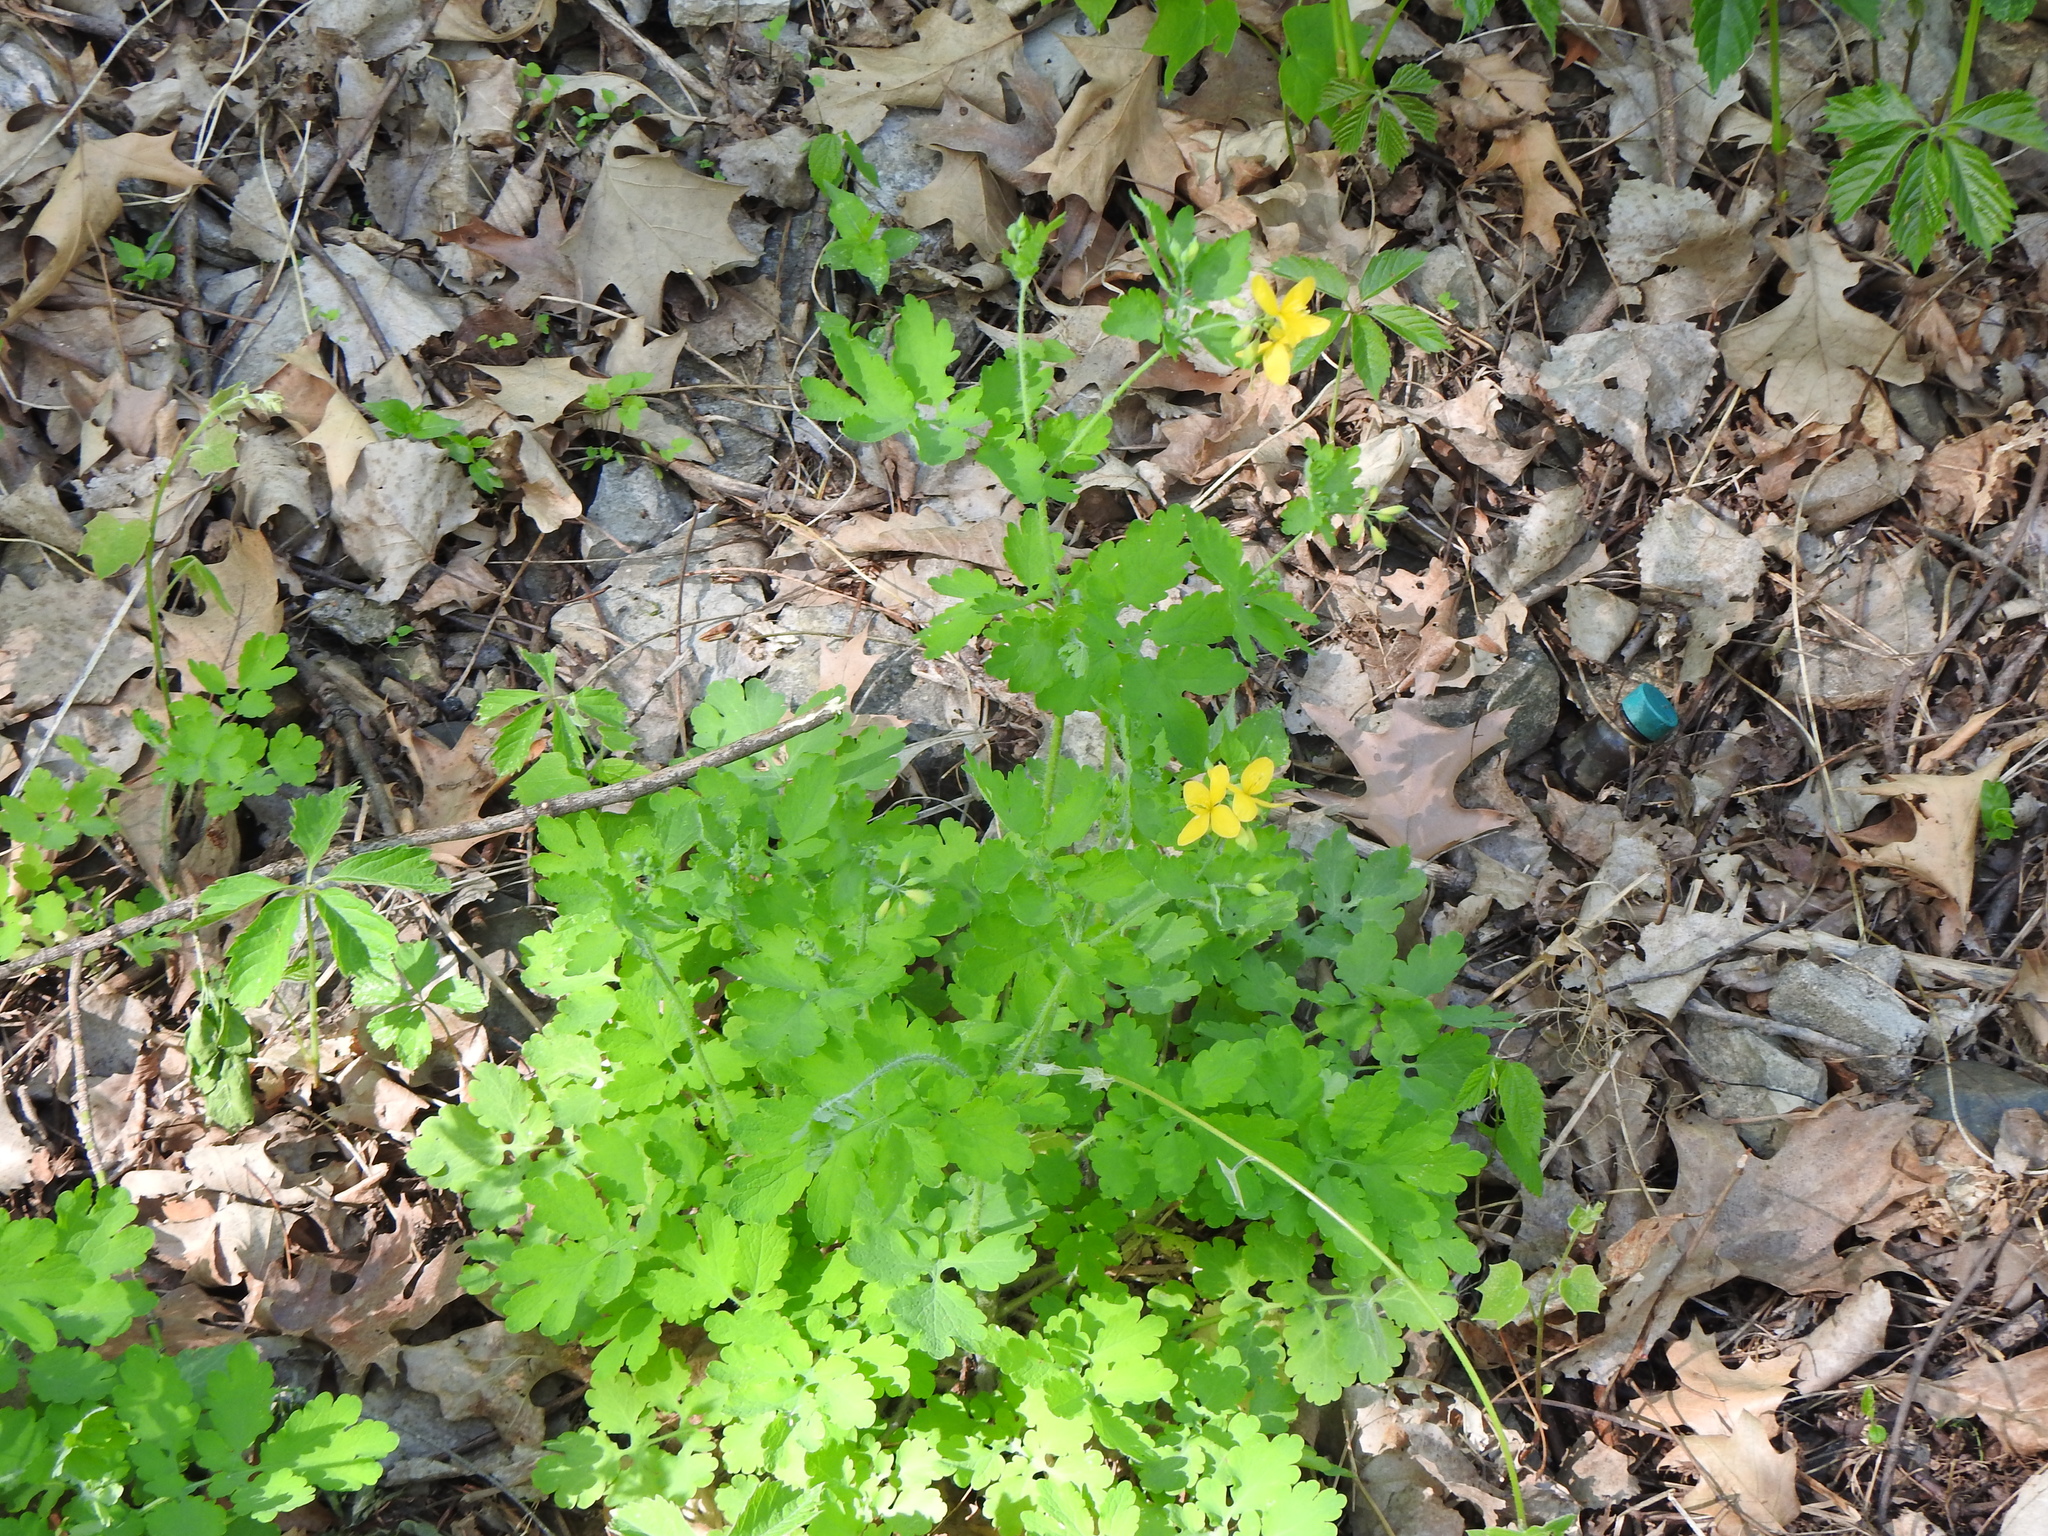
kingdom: Plantae
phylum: Tracheophyta
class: Magnoliopsida
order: Ranunculales
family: Papaveraceae
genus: Chelidonium
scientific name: Chelidonium majus
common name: Greater celandine
